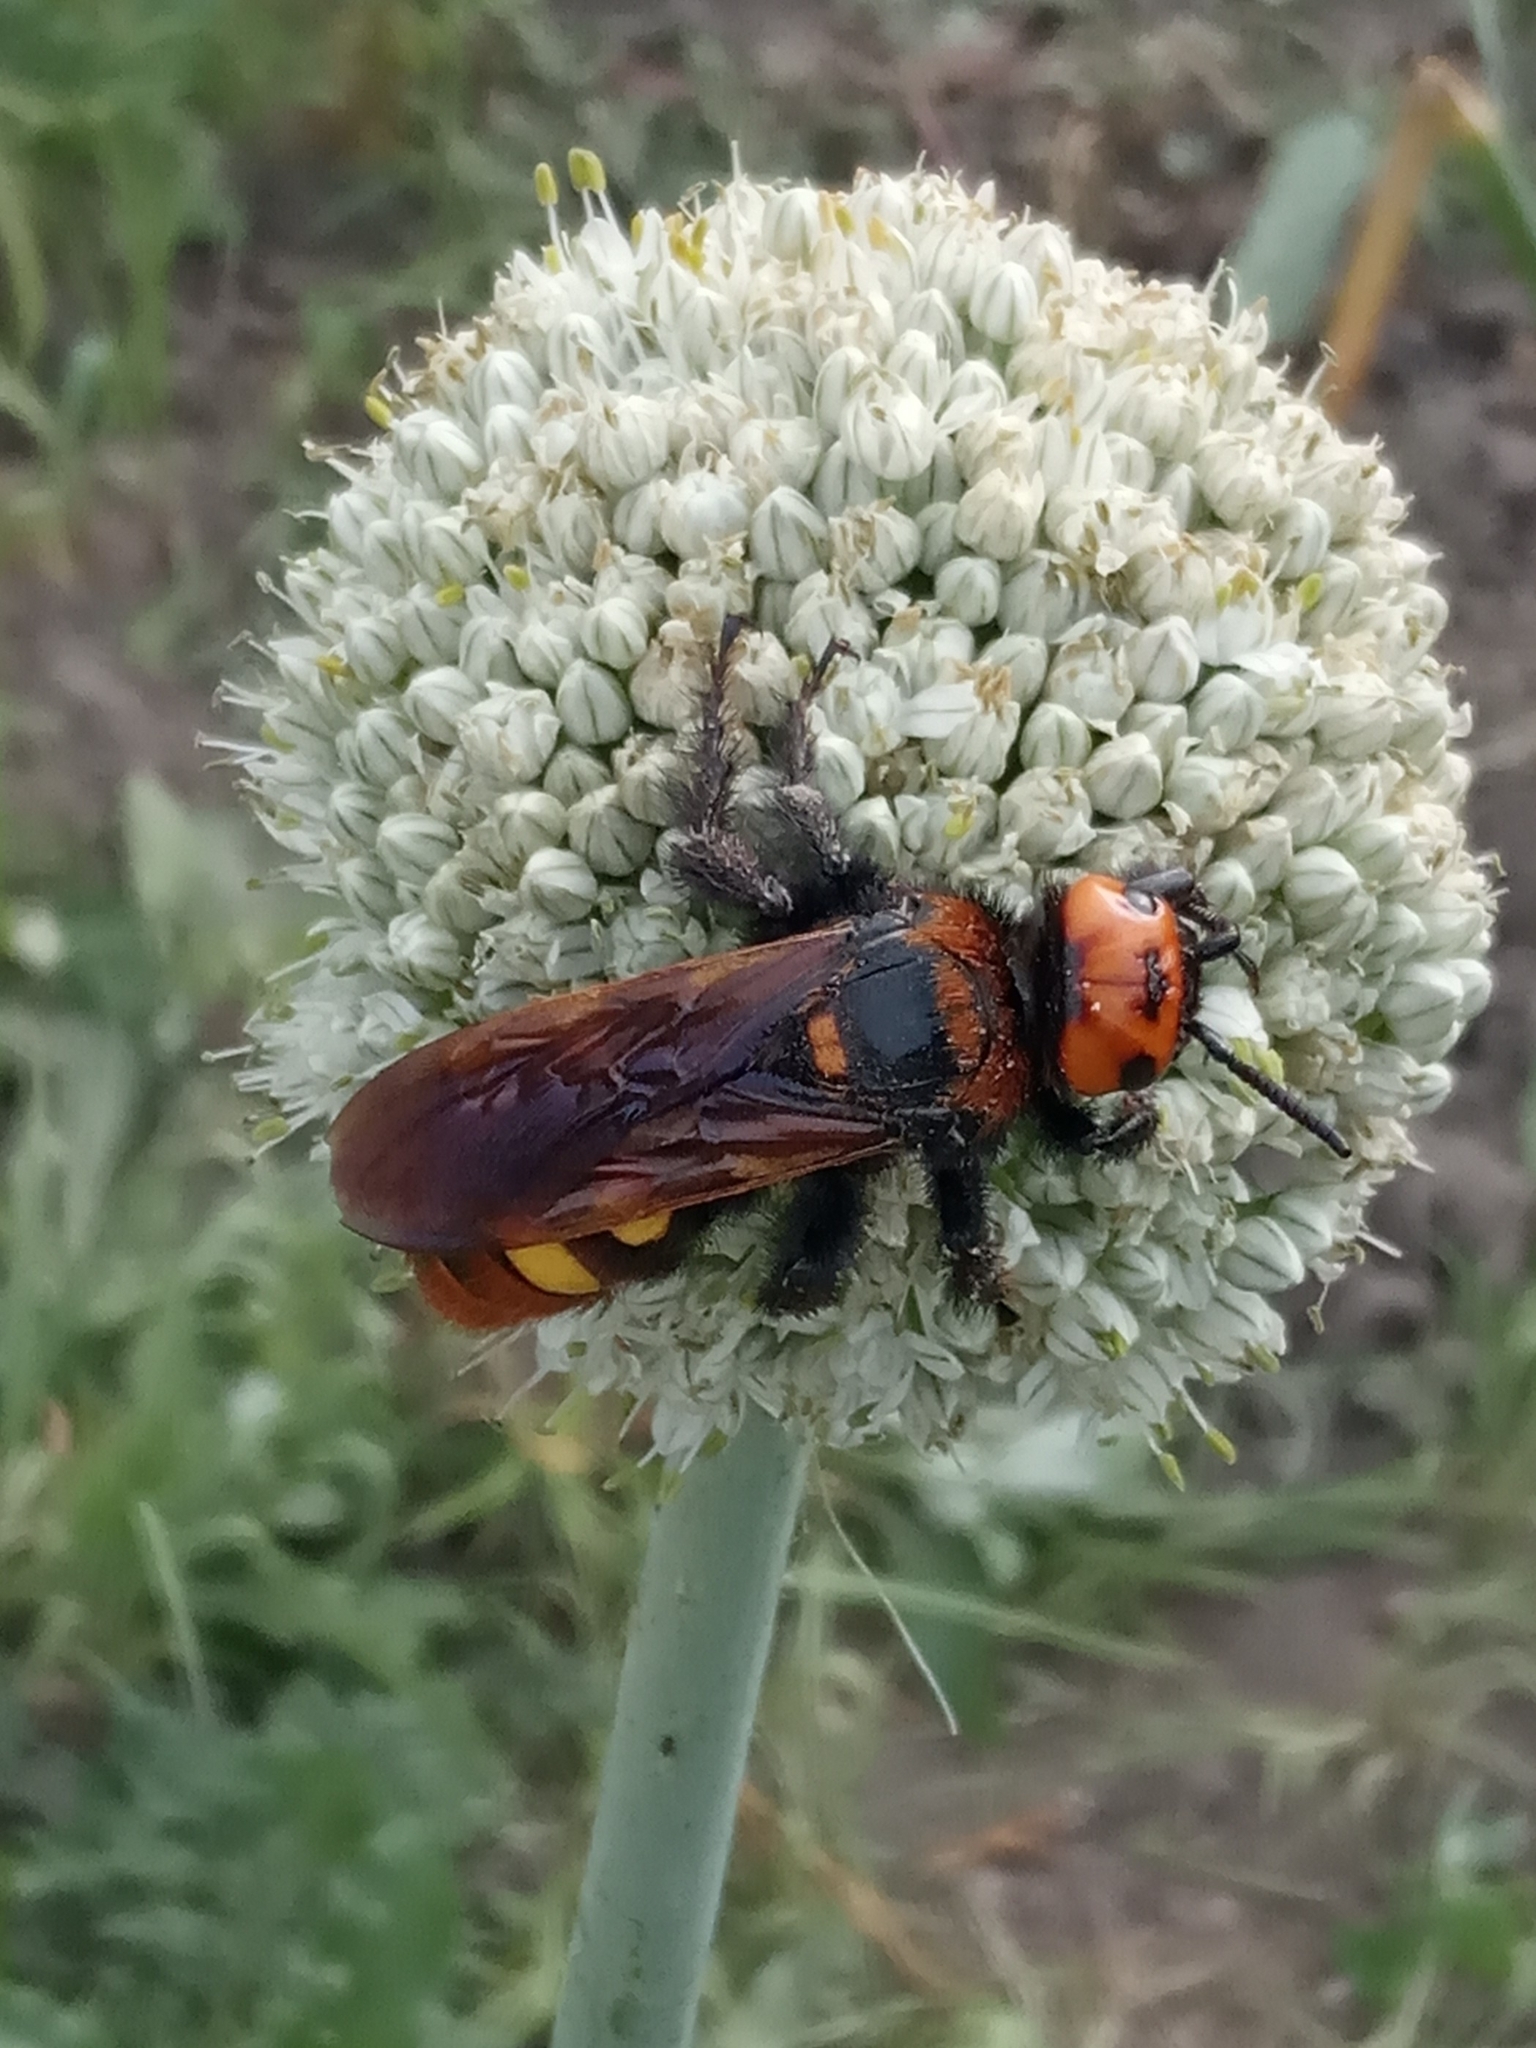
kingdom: Animalia
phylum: Arthropoda
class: Insecta
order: Hymenoptera
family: Scoliidae
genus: Megascolia
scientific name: Megascolia maculata
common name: Mammoth wasp
